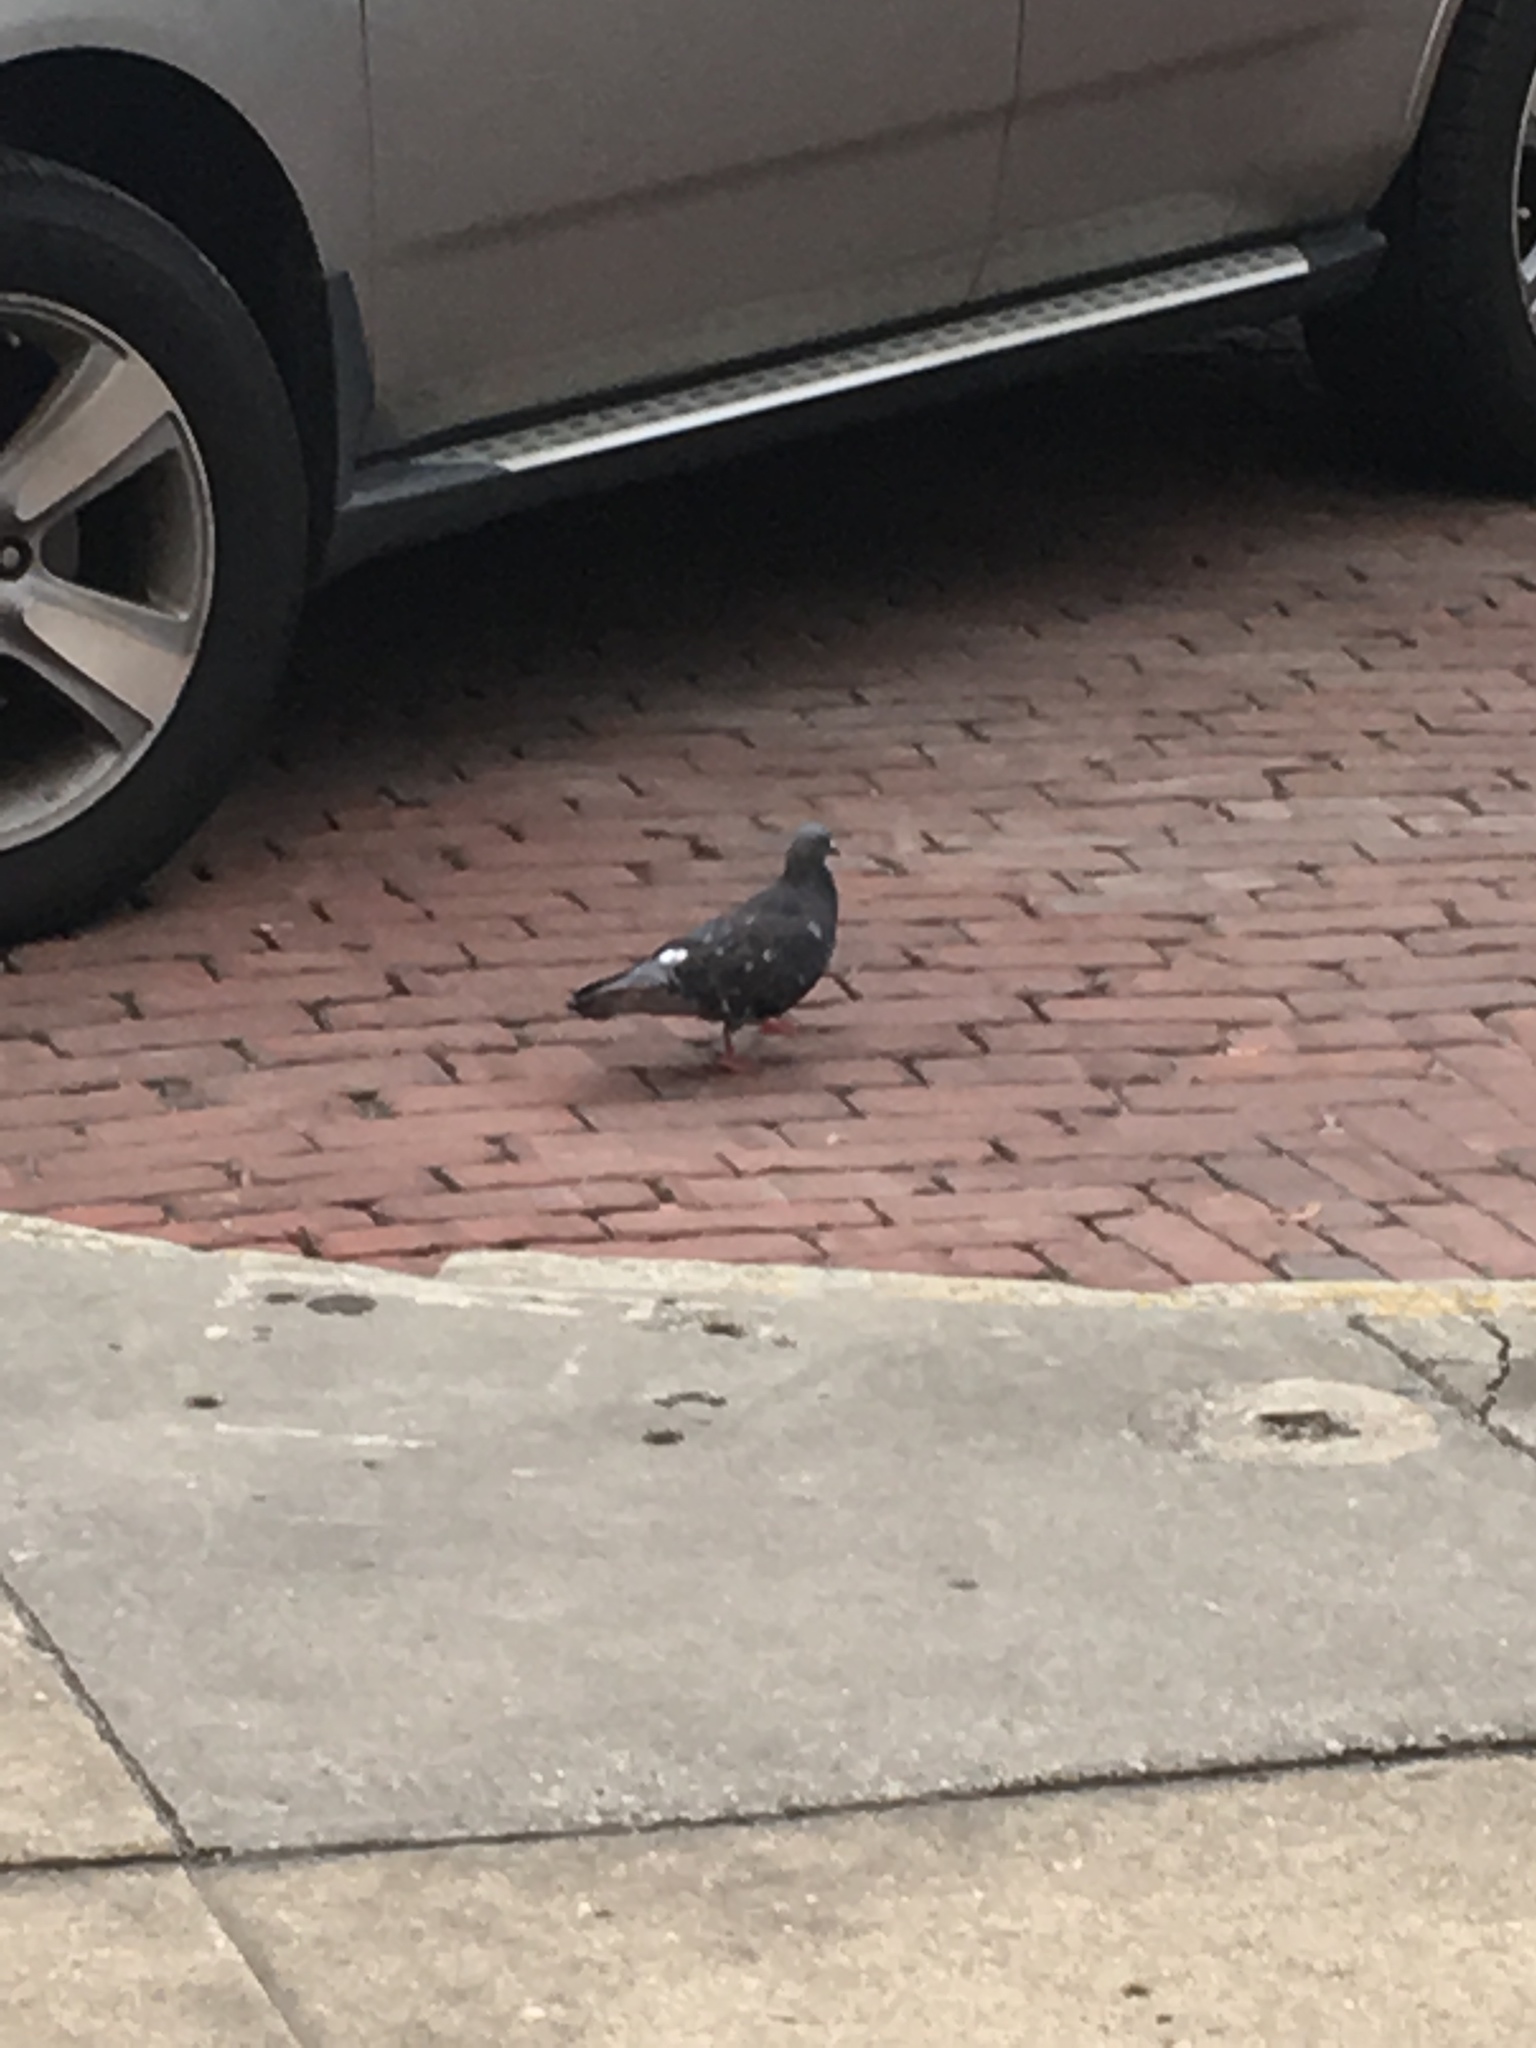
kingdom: Animalia
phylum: Chordata
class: Aves
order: Columbiformes
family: Columbidae
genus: Columba
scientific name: Columba livia
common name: Rock pigeon
